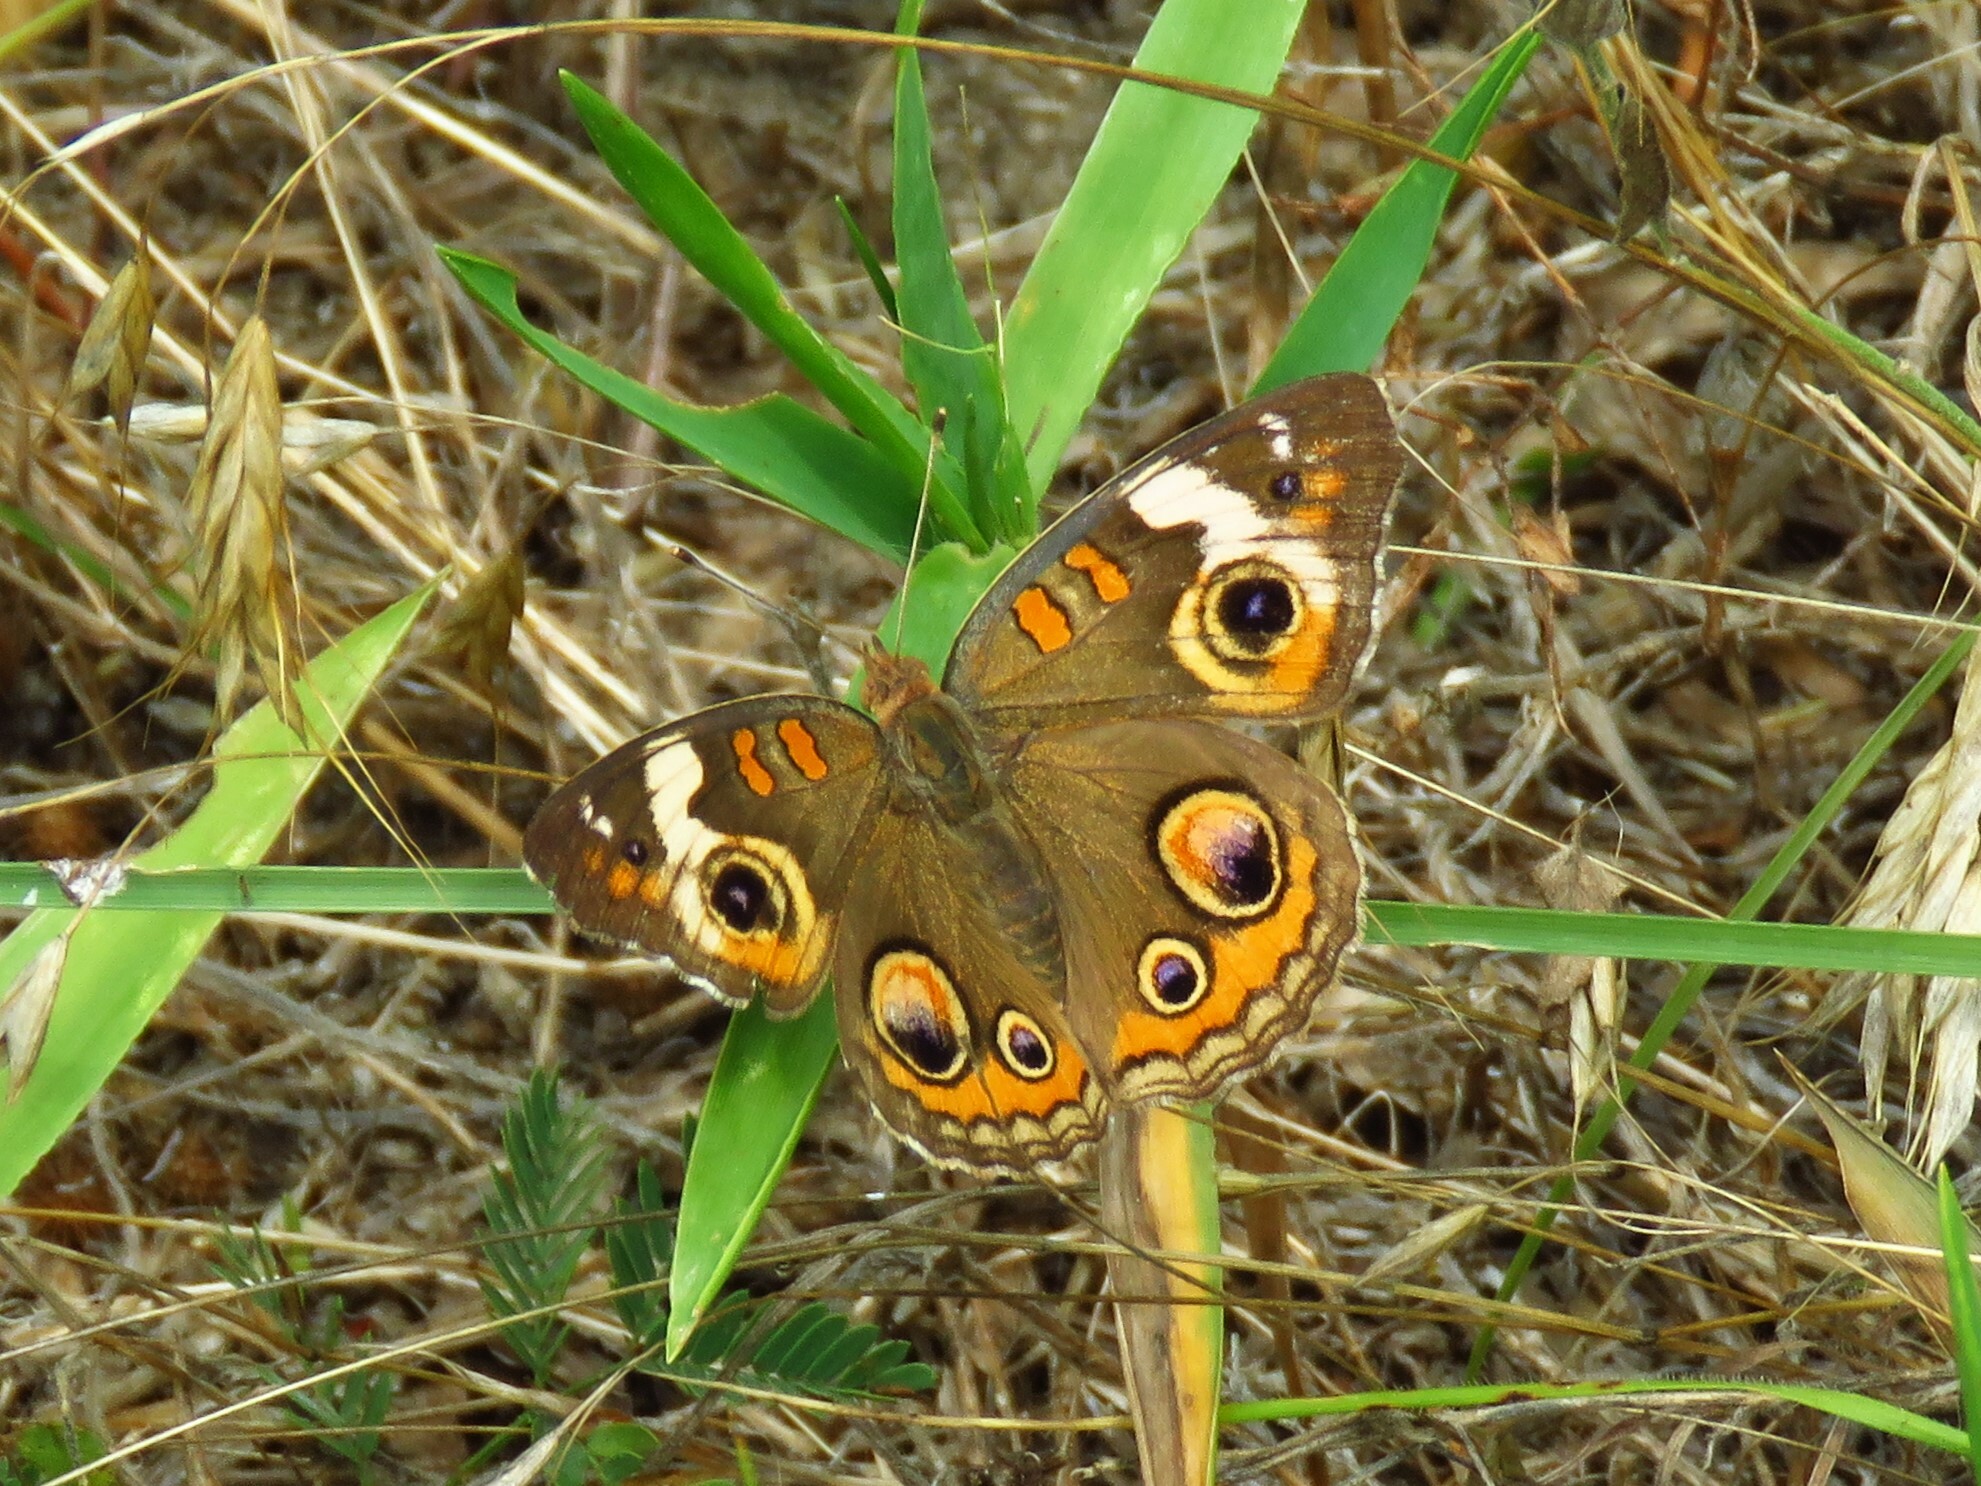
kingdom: Animalia
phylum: Arthropoda
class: Insecta
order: Lepidoptera
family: Nymphalidae
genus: Junonia
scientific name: Junonia coenia
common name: Common buckeye
